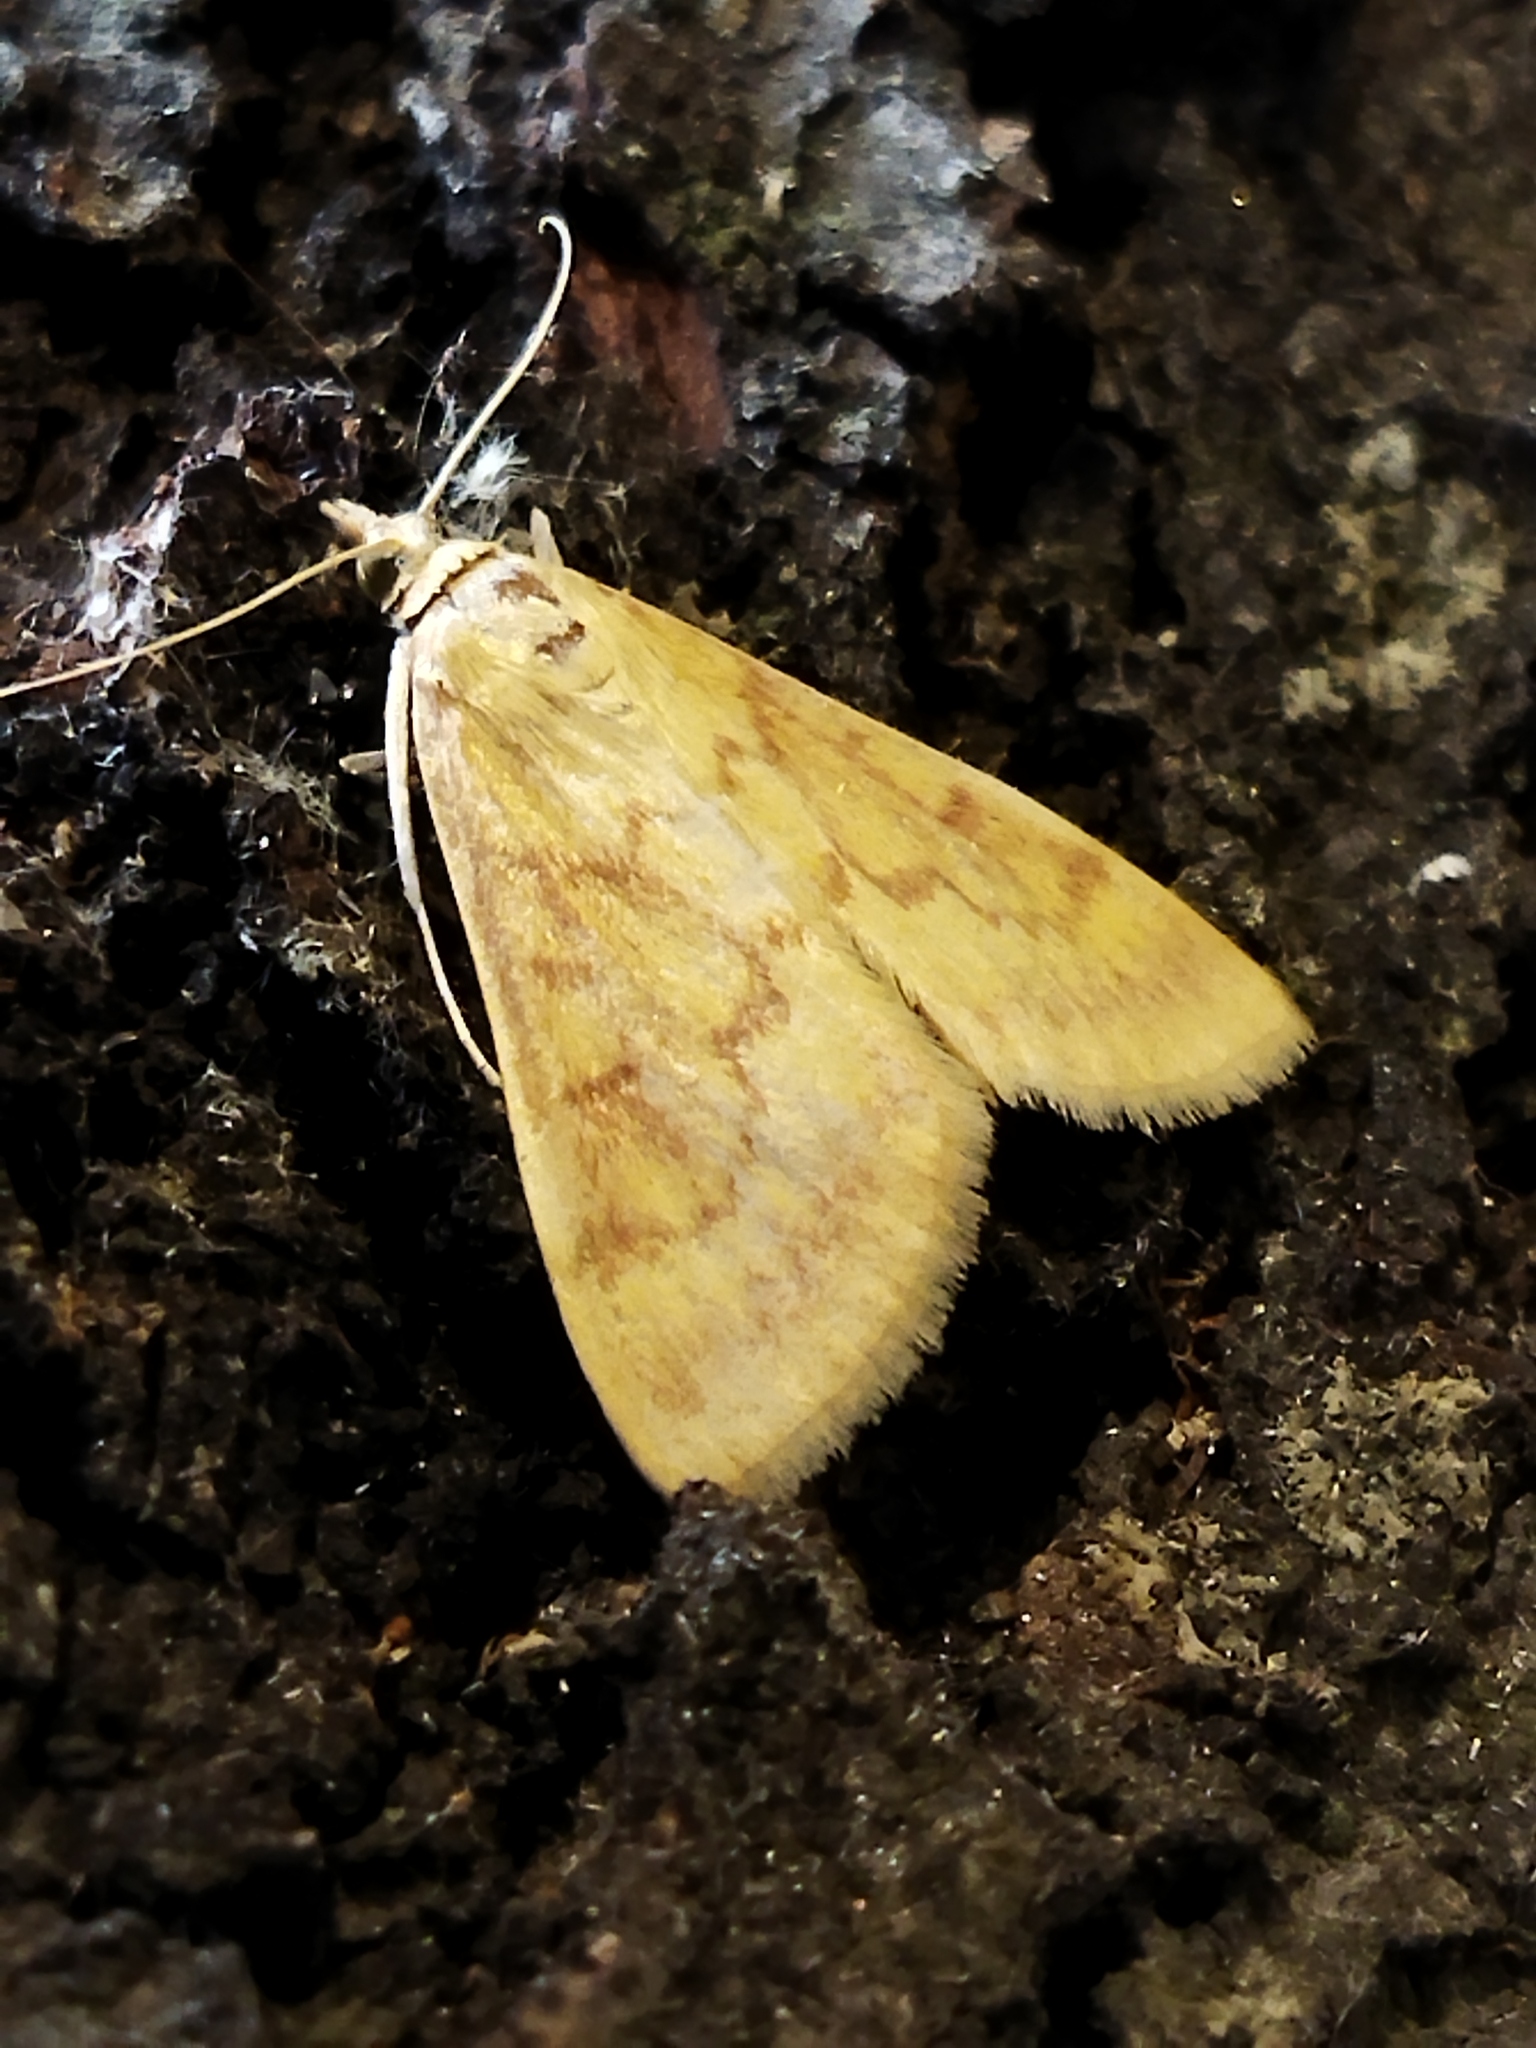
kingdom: Animalia
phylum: Arthropoda
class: Insecta
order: Lepidoptera
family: Crambidae
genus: Ostrinia
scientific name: Ostrinia nubilalis
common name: European corn borer
